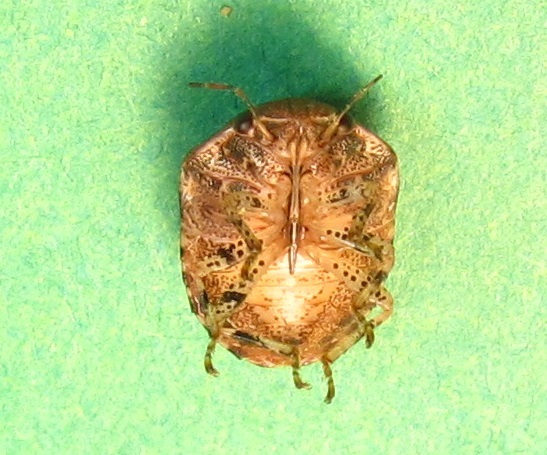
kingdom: Animalia
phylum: Arthropoda
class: Insecta
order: Hemiptera
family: Scutelleridae
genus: Stethaulax
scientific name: Stethaulax marmoratus
